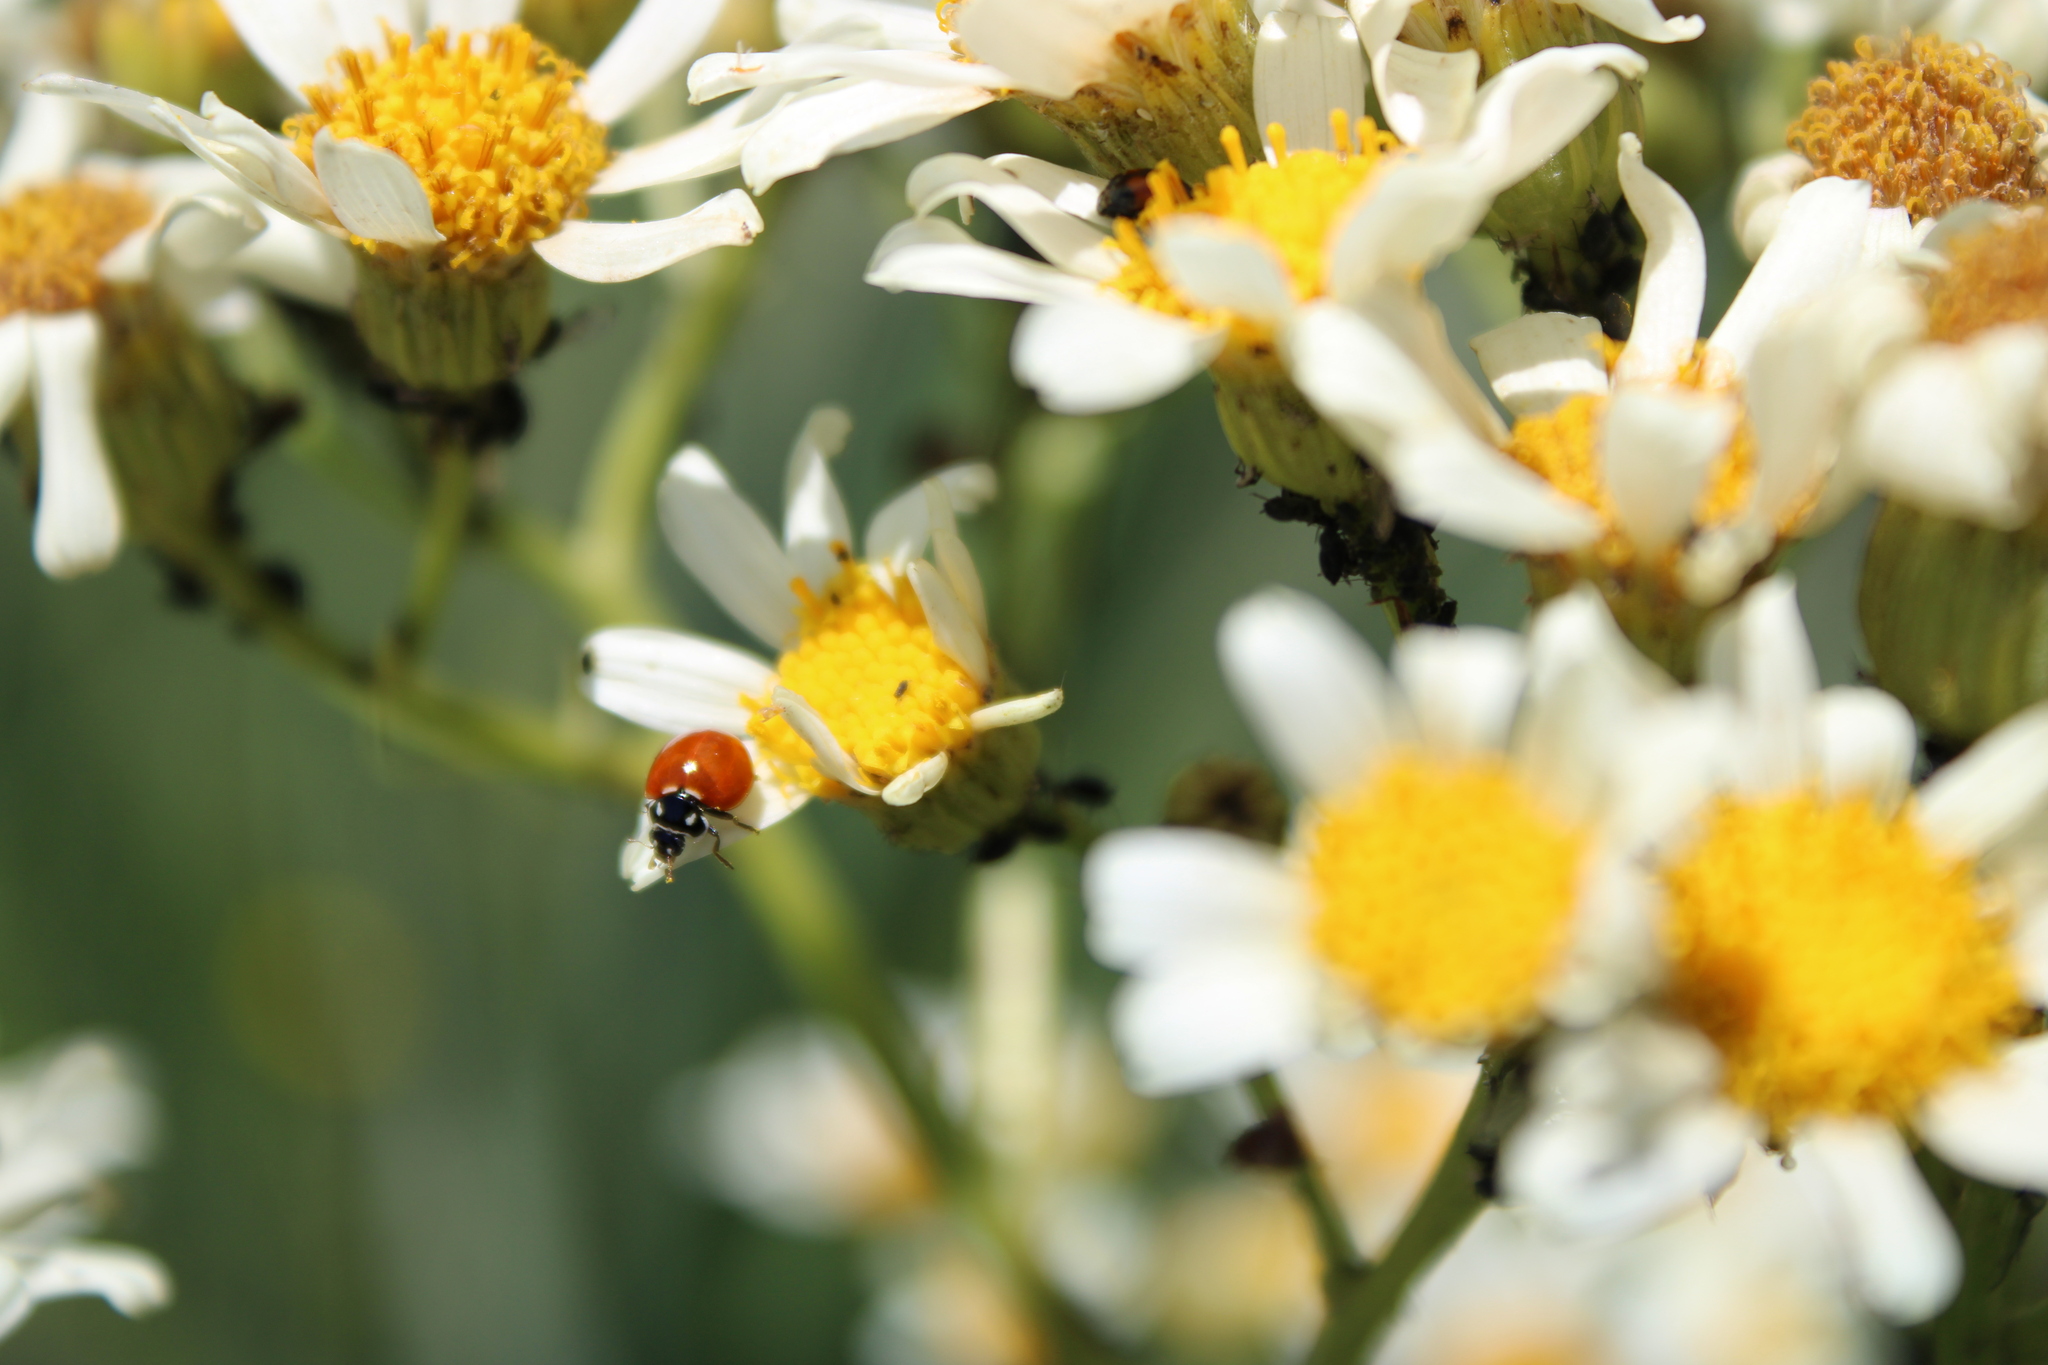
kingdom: Animalia
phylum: Arthropoda
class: Insecta
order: Coleoptera
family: Coccinellidae
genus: Cycloneda
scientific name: Cycloneda emarginata
